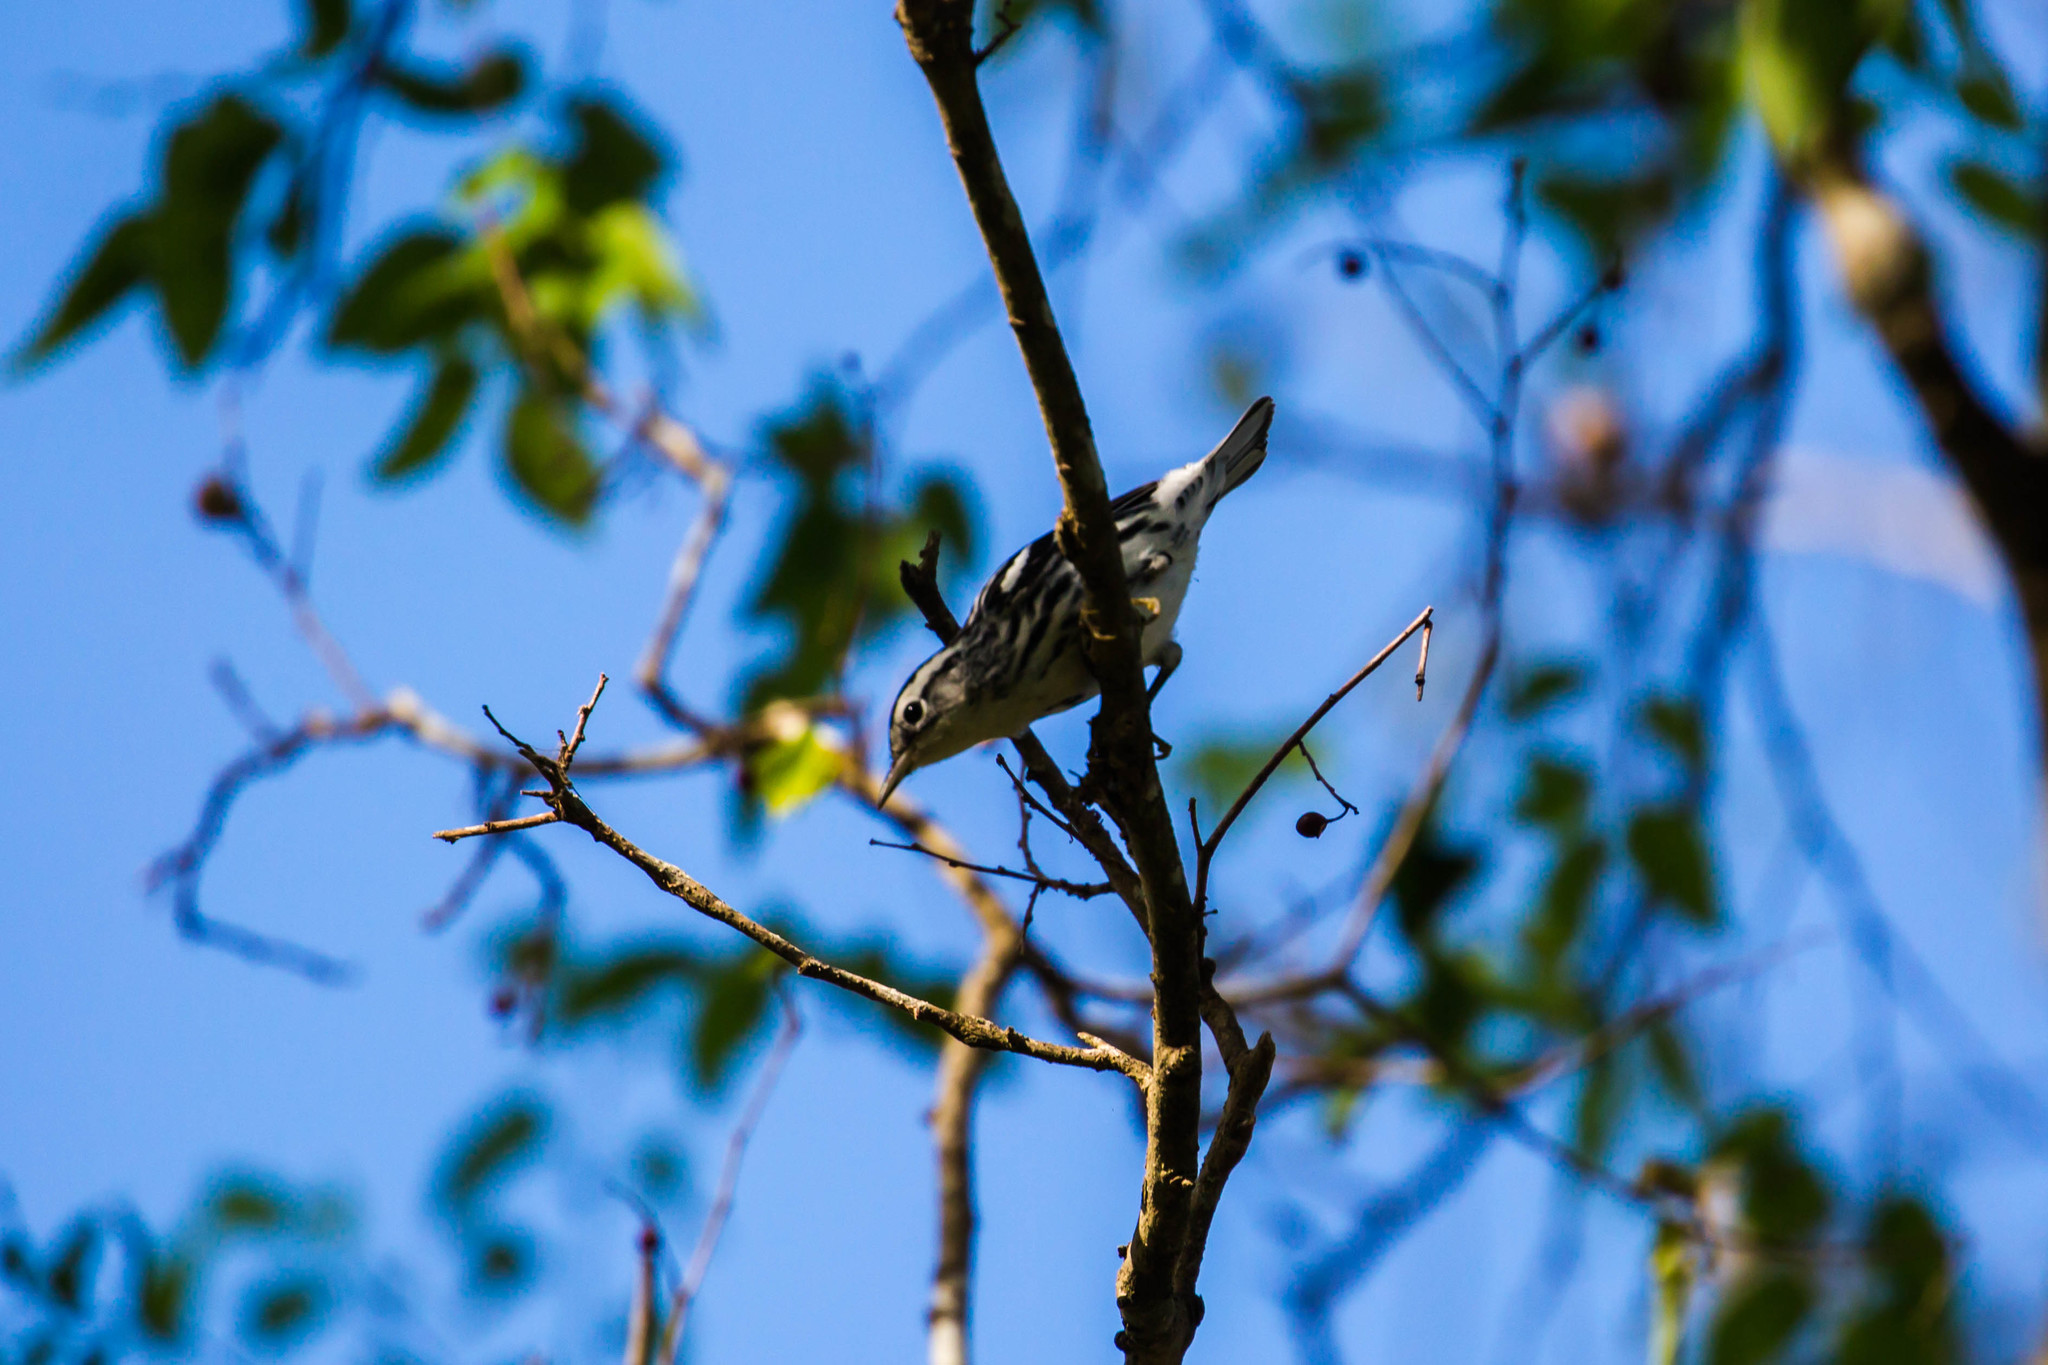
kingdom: Animalia
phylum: Chordata
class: Aves
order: Passeriformes
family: Parulidae
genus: Mniotilta
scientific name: Mniotilta varia
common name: Black-and-white warbler
